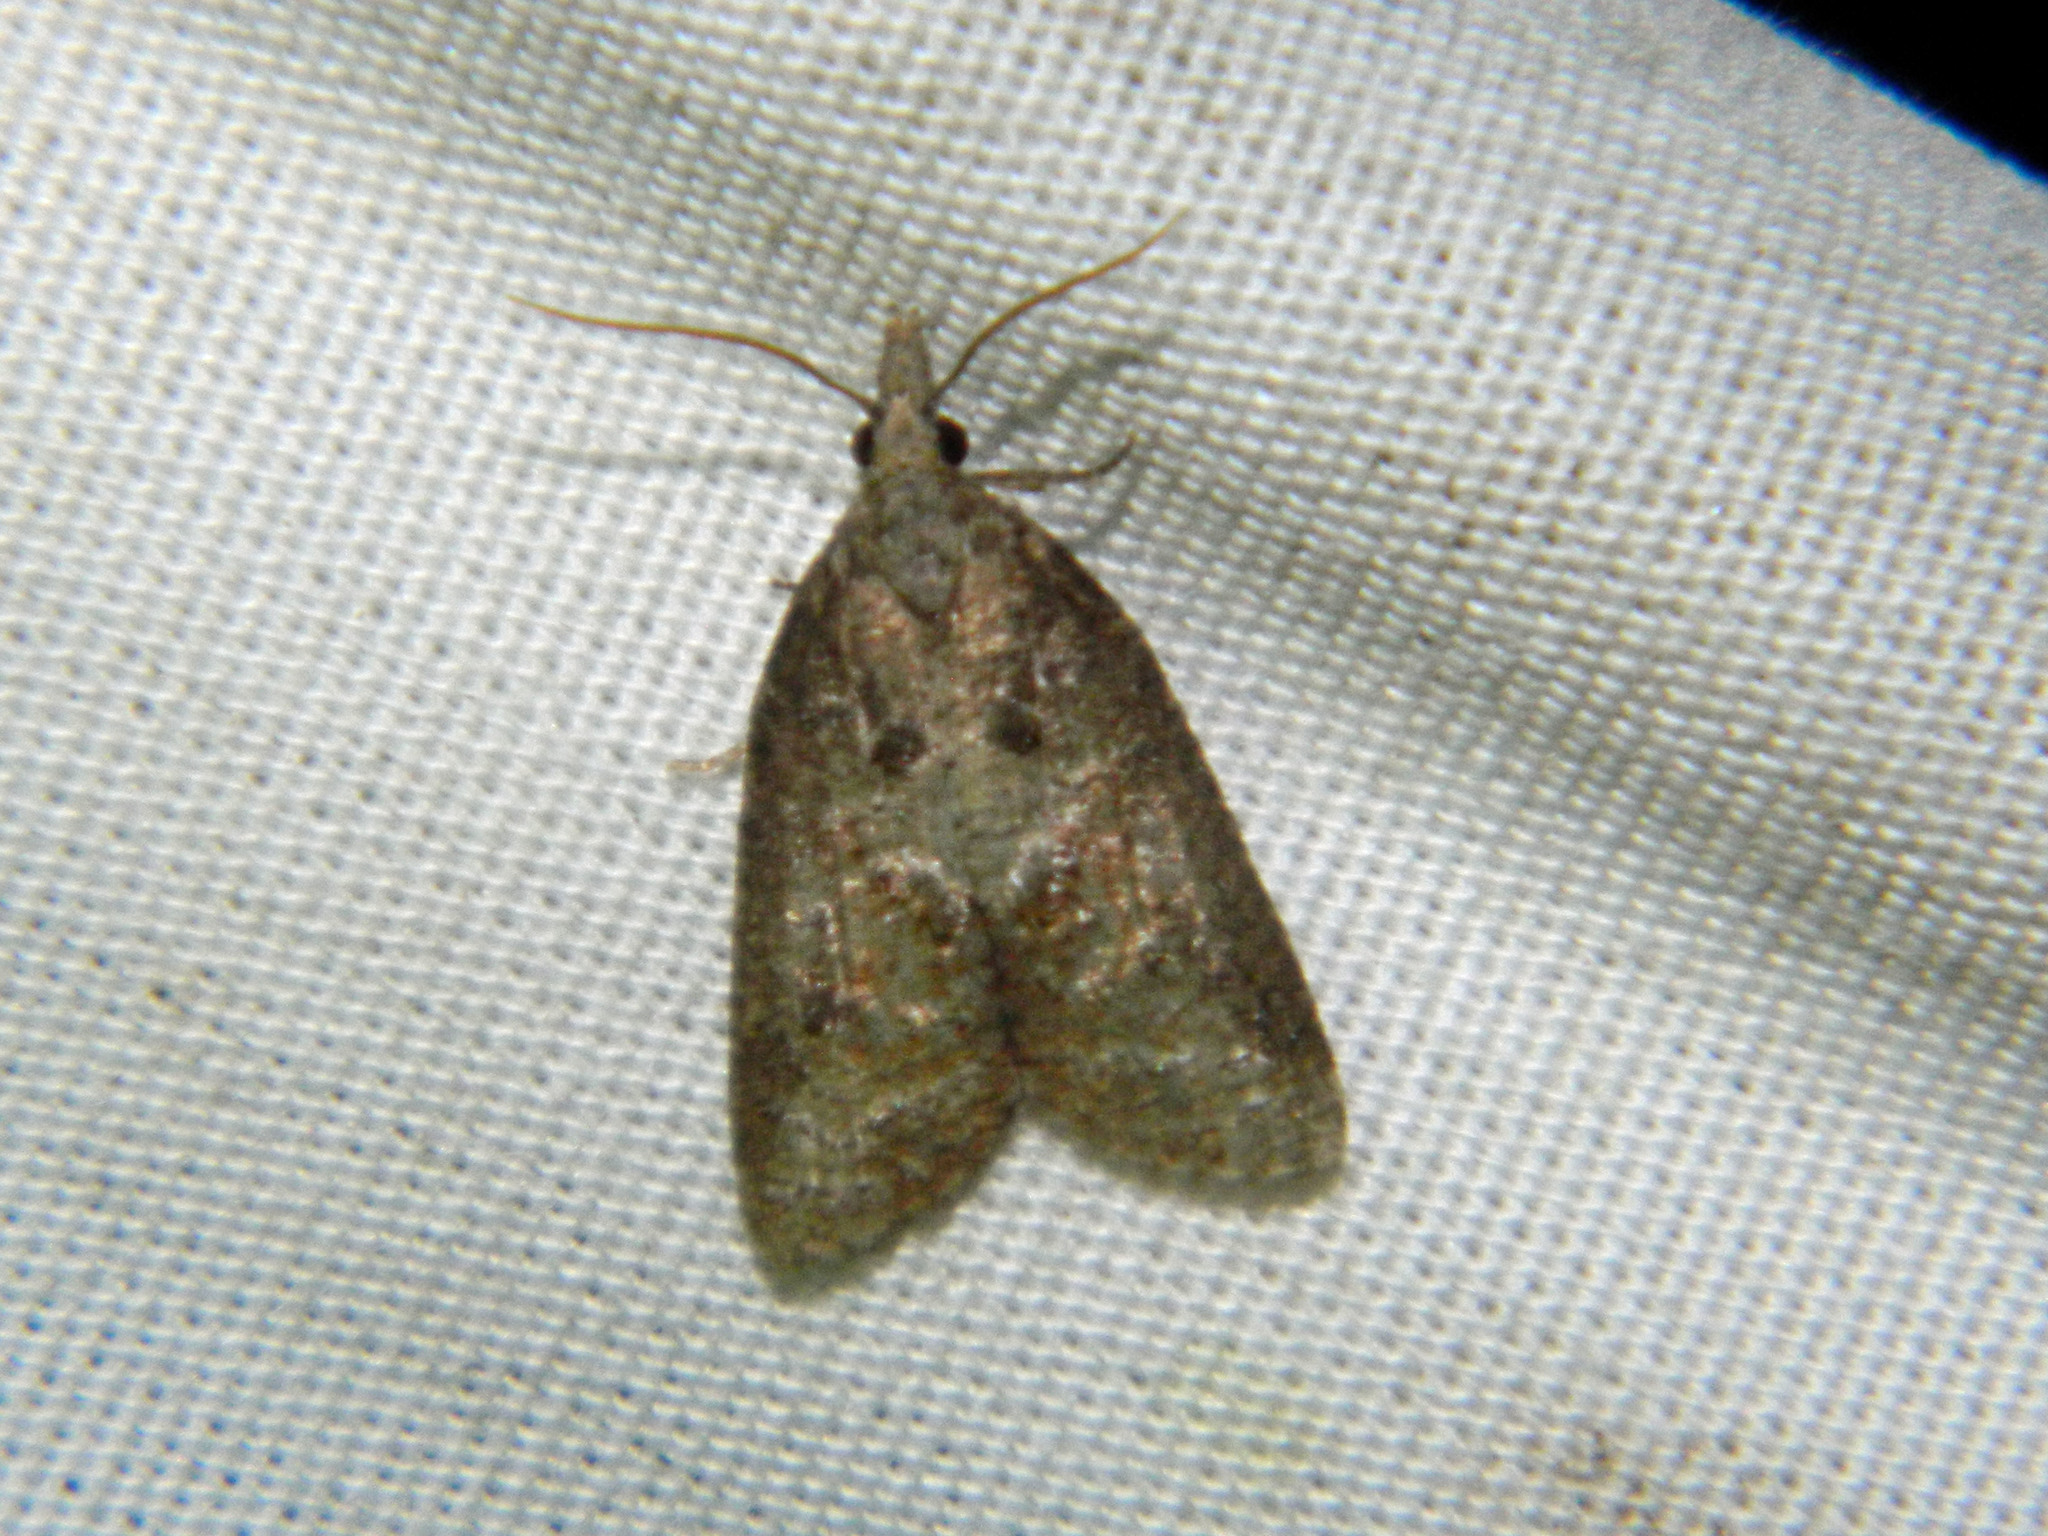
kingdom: Animalia
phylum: Arthropoda
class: Insecta
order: Lepidoptera
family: Tortricidae
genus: Platynota
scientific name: Platynota idaeusalis
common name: Tufted apple bud moth
